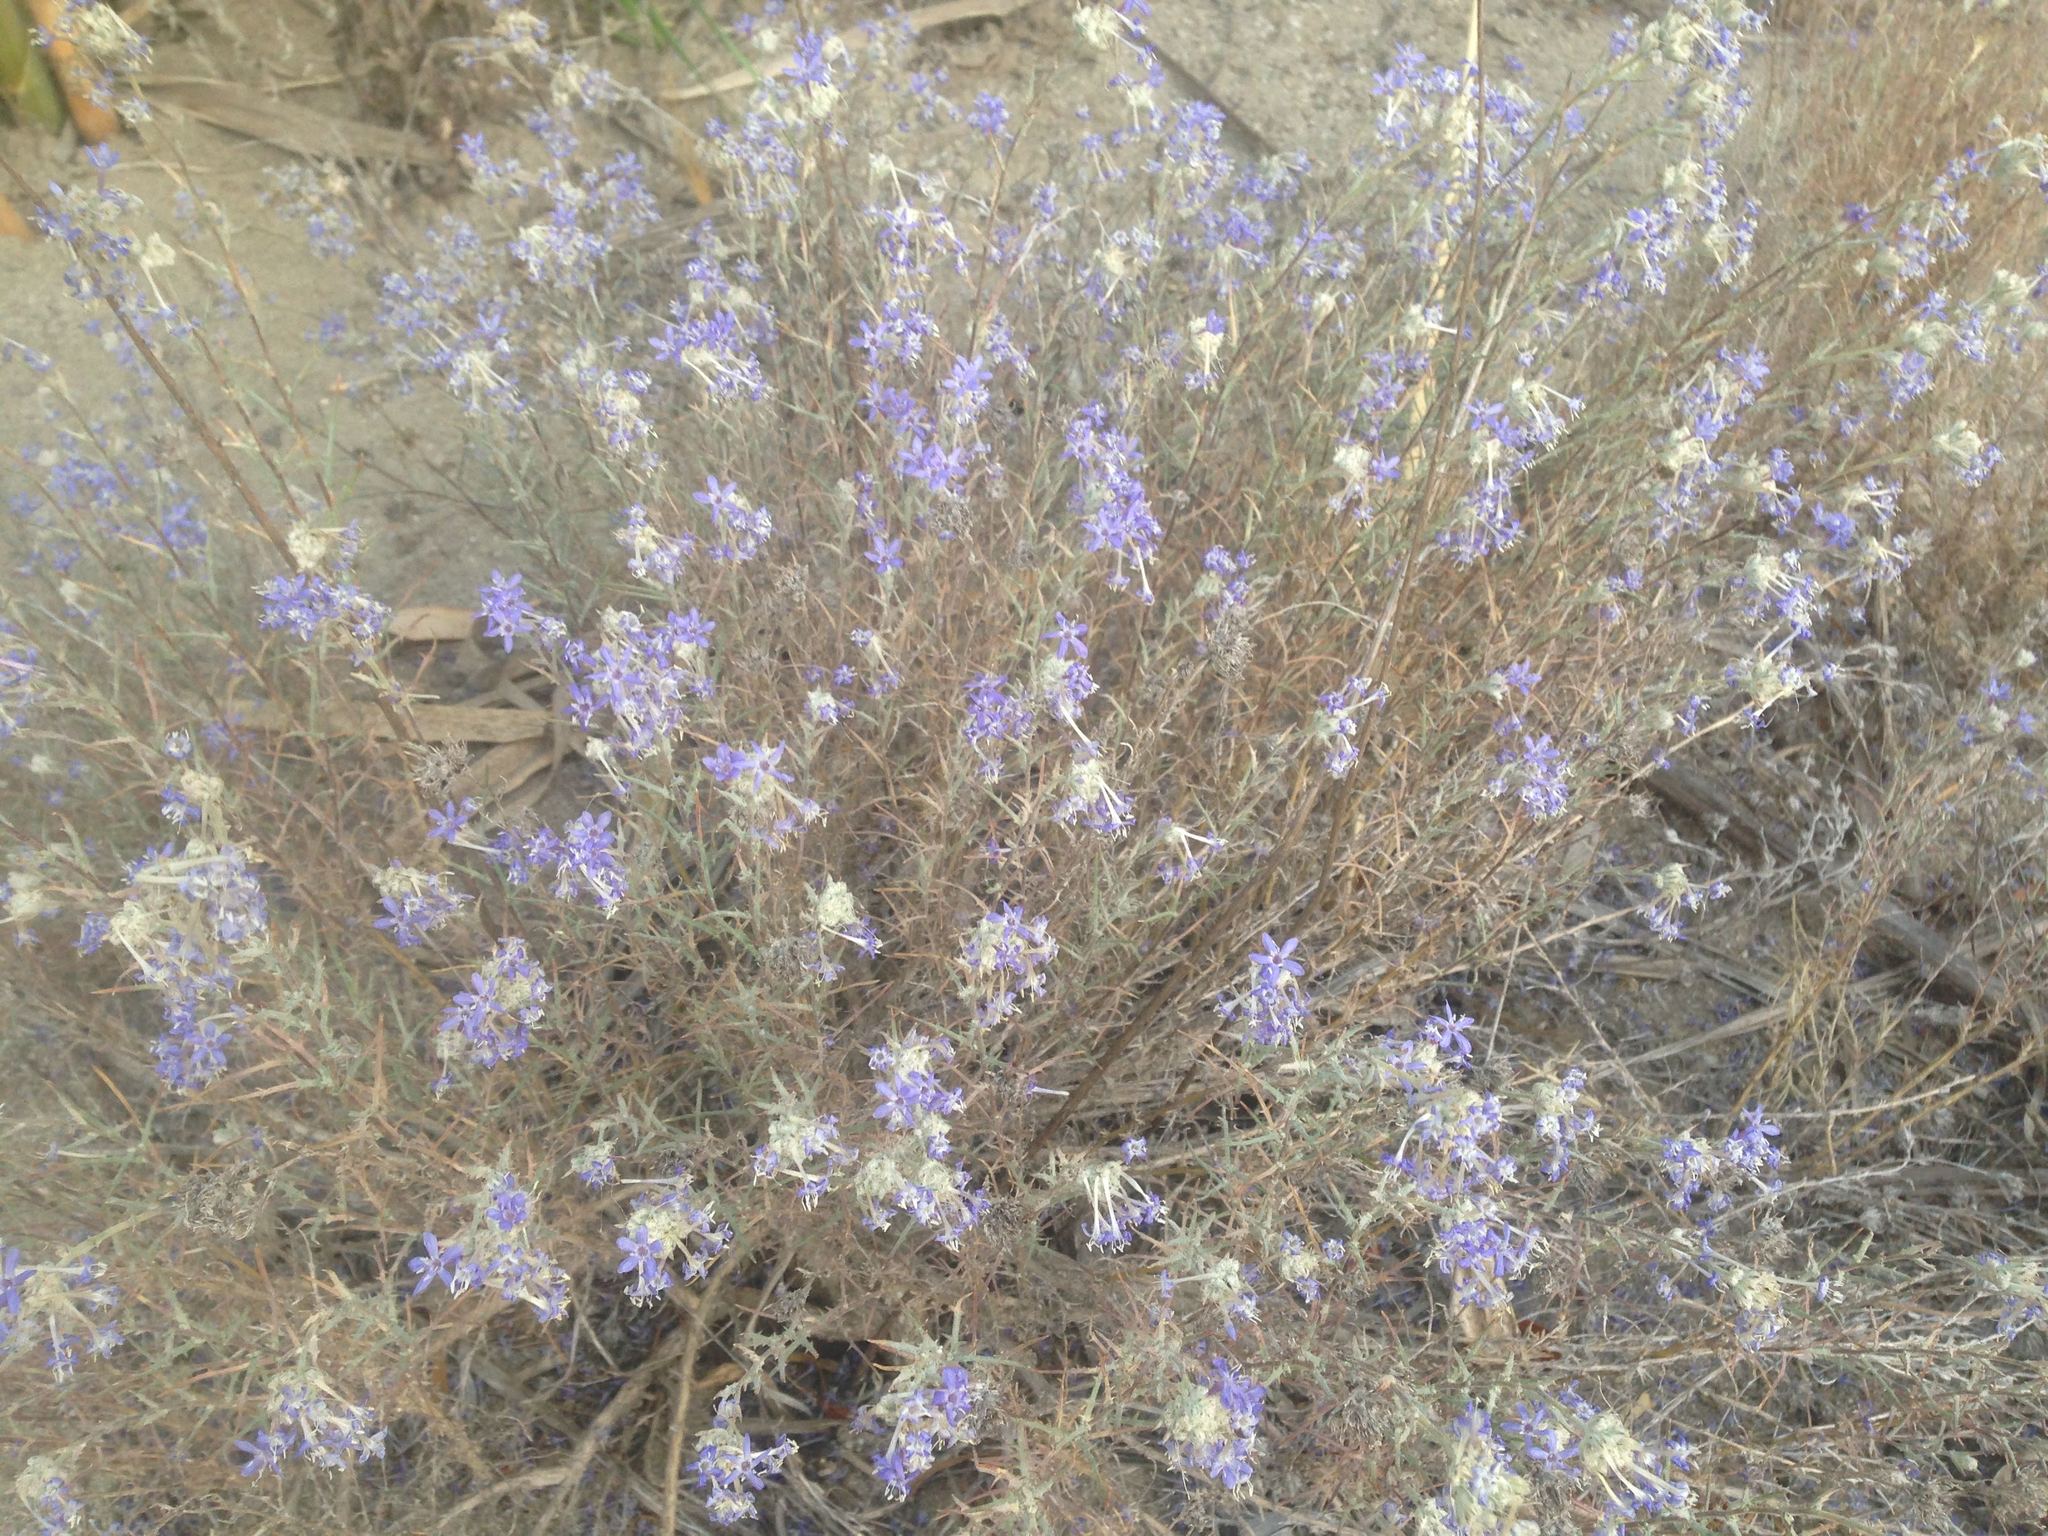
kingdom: Plantae
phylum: Tracheophyta
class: Magnoliopsida
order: Ericales
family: Polemoniaceae
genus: Eriastrum
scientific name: Eriastrum densifolium
